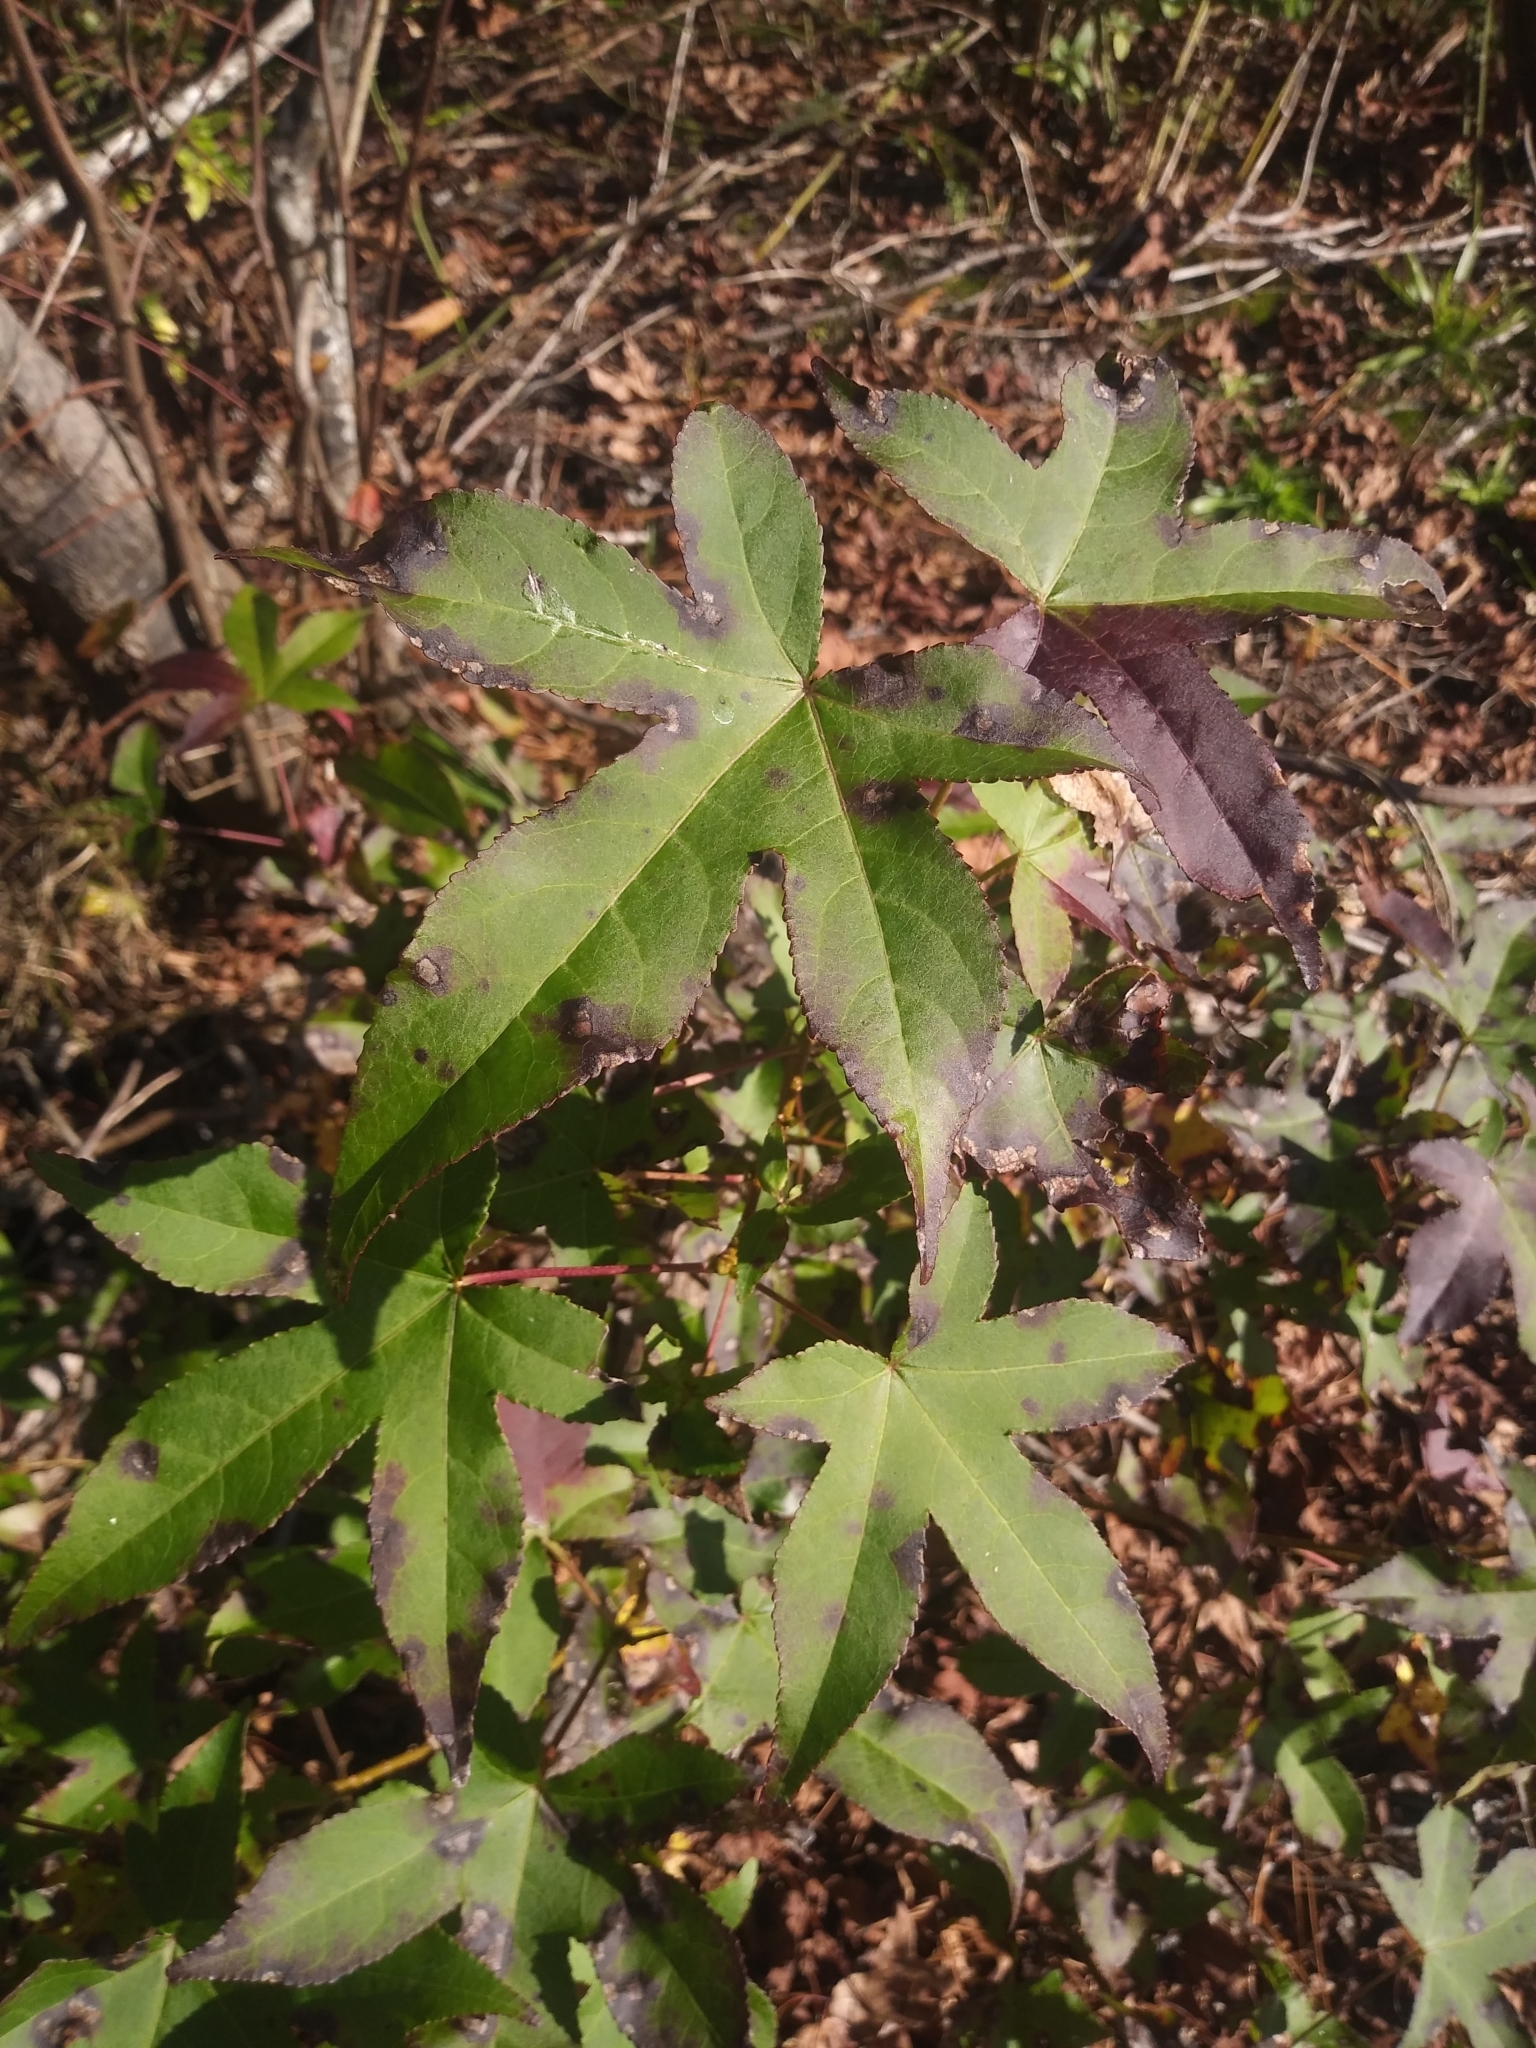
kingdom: Plantae
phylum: Tracheophyta
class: Magnoliopsida
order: Saxifragales
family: Altingiaceae
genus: Liquidambar
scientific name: Liquidambar styraciflua
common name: Sweet gum
